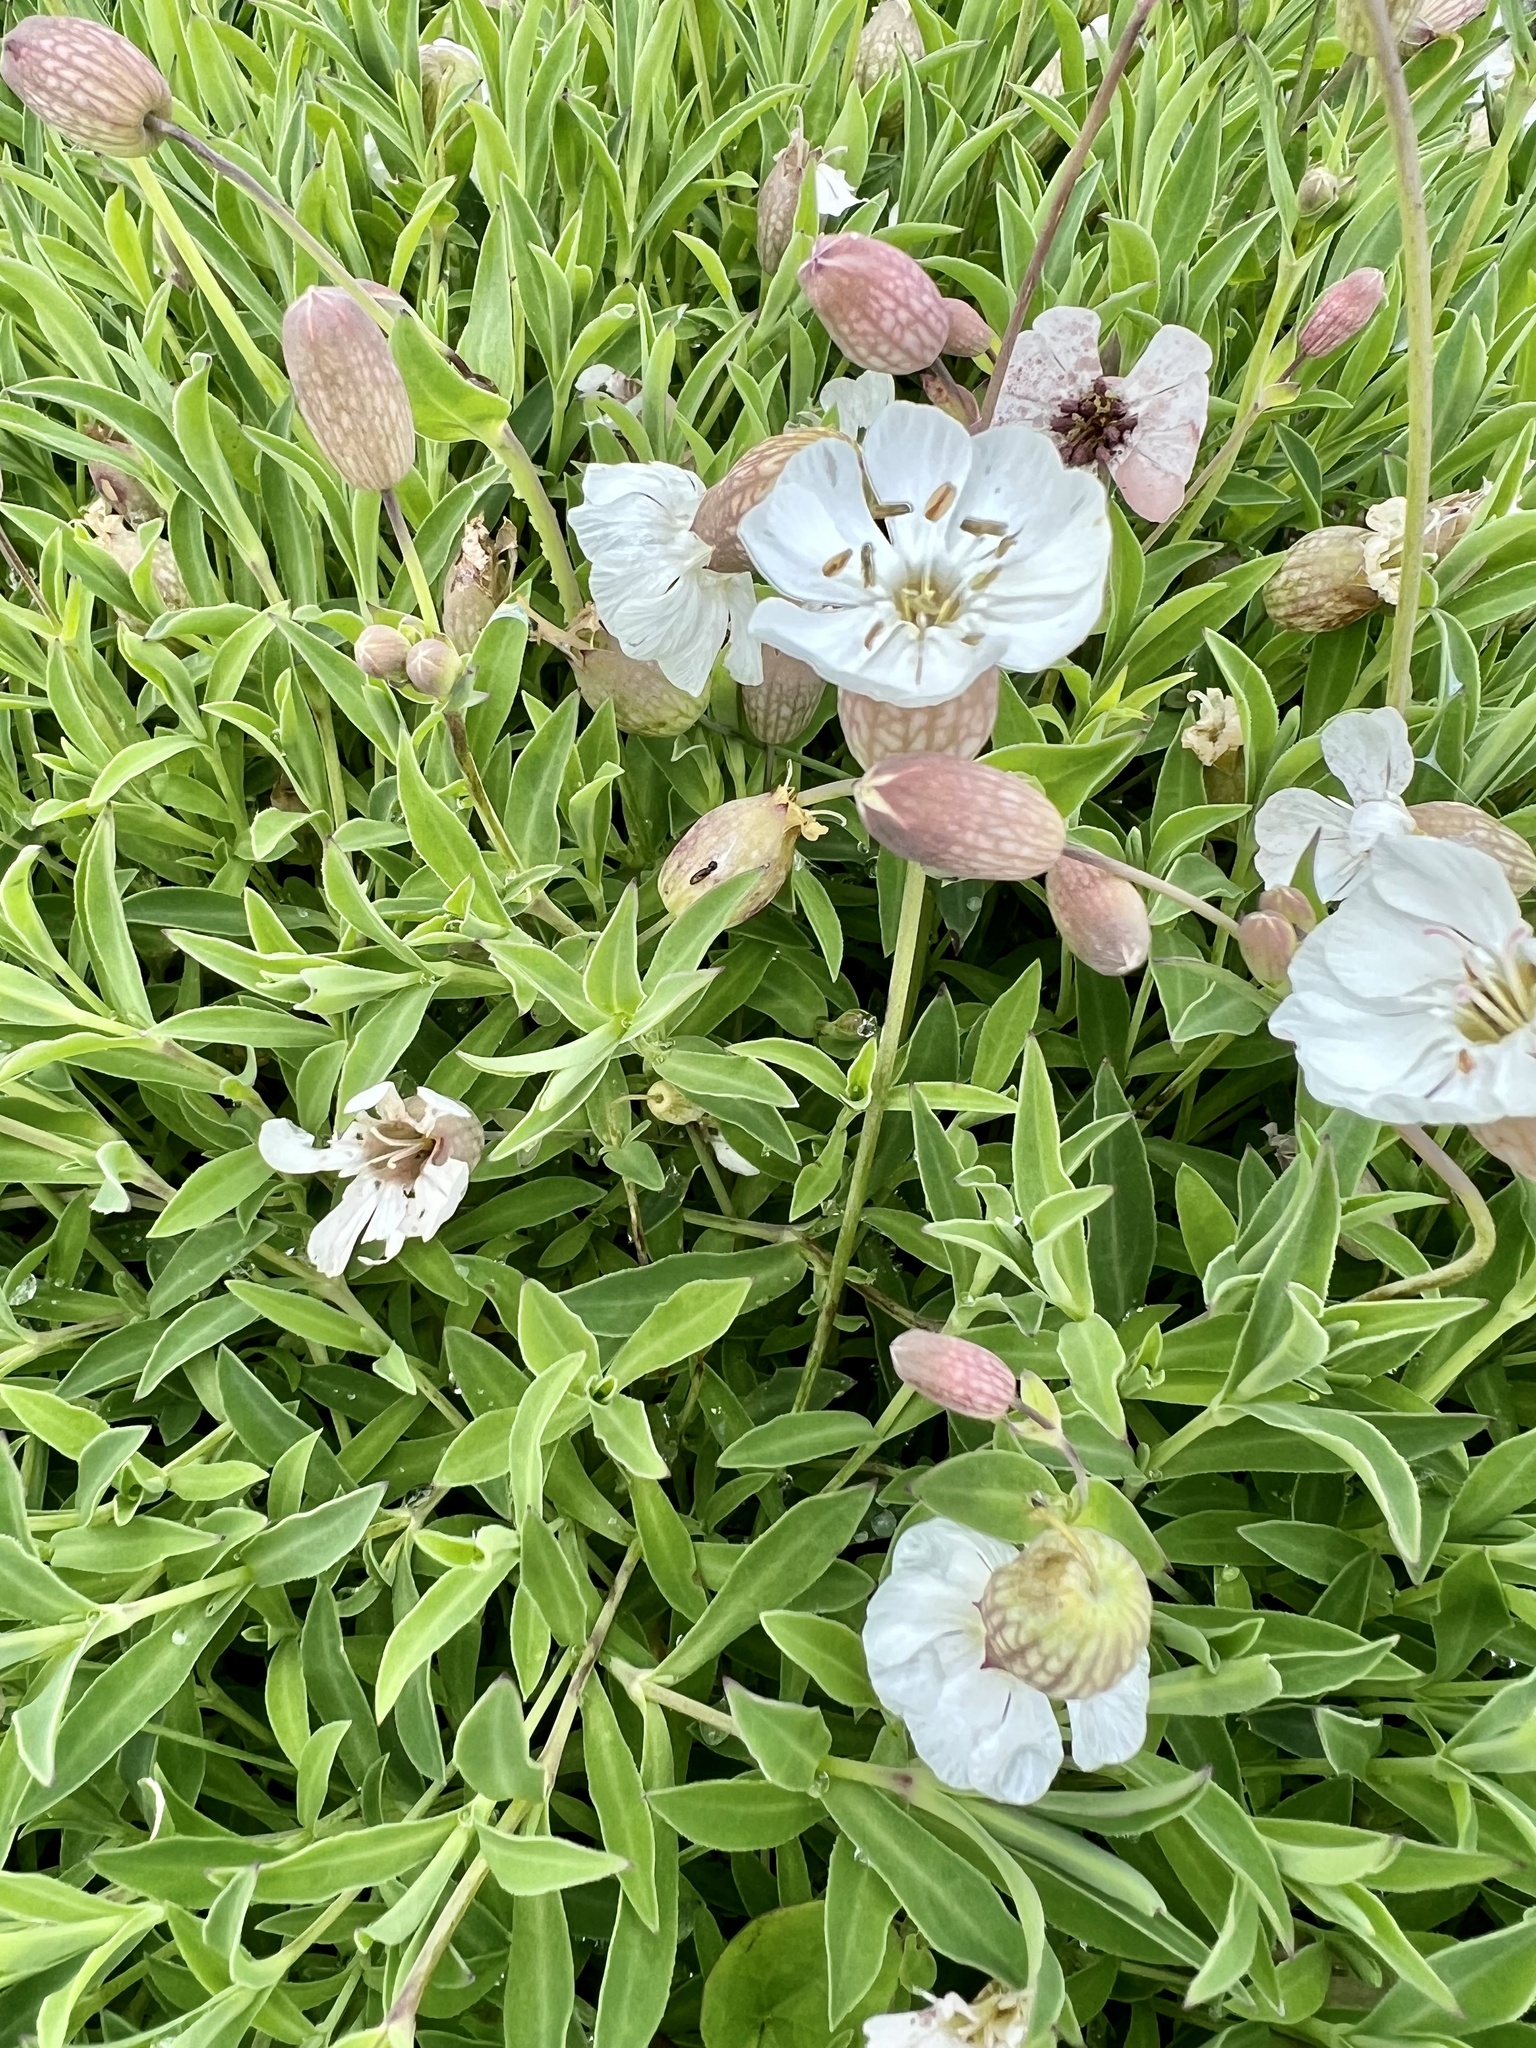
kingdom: Plantae
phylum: Tracheophyta
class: Magnoliopsida
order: Caryophyllales
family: Caryophyllaceae
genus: Silene
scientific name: Silene uniflora
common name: Sea campion
